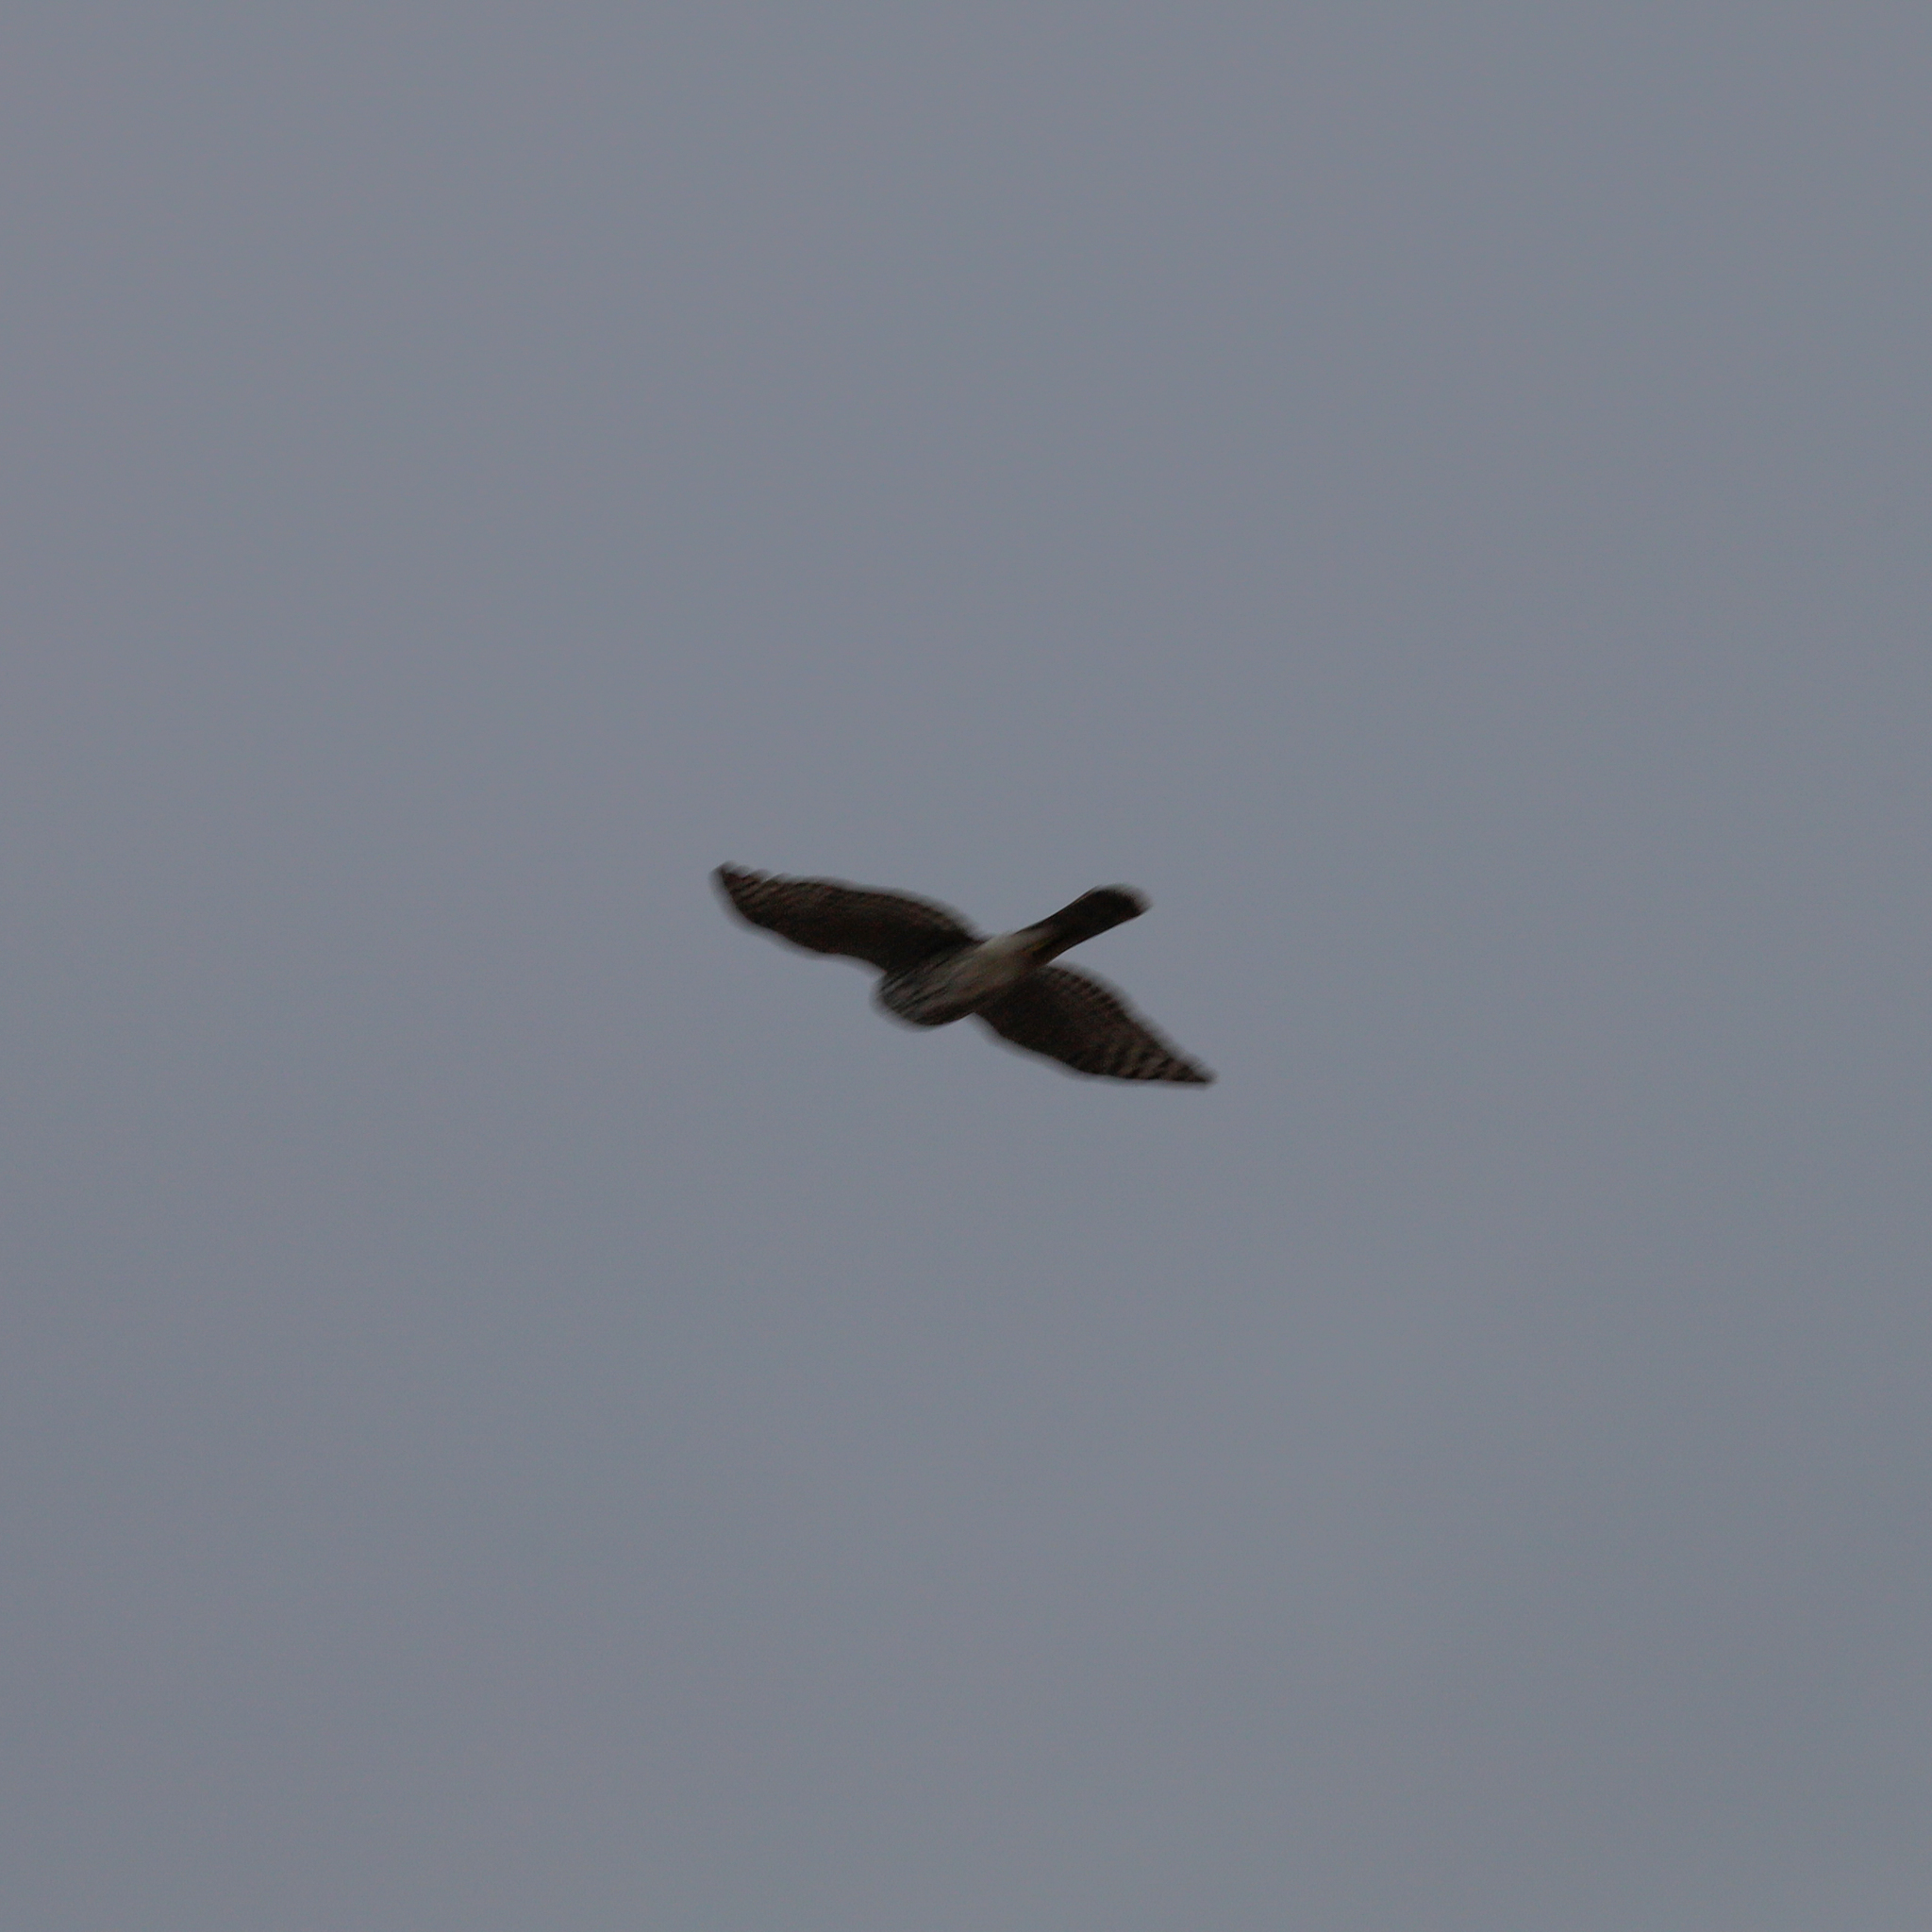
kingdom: Animalia
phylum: Chordata
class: Aves
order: Accipitriformes
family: Accipitridae
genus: Accipiter
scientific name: Accipiter cooperii
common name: Cooper's hawk
